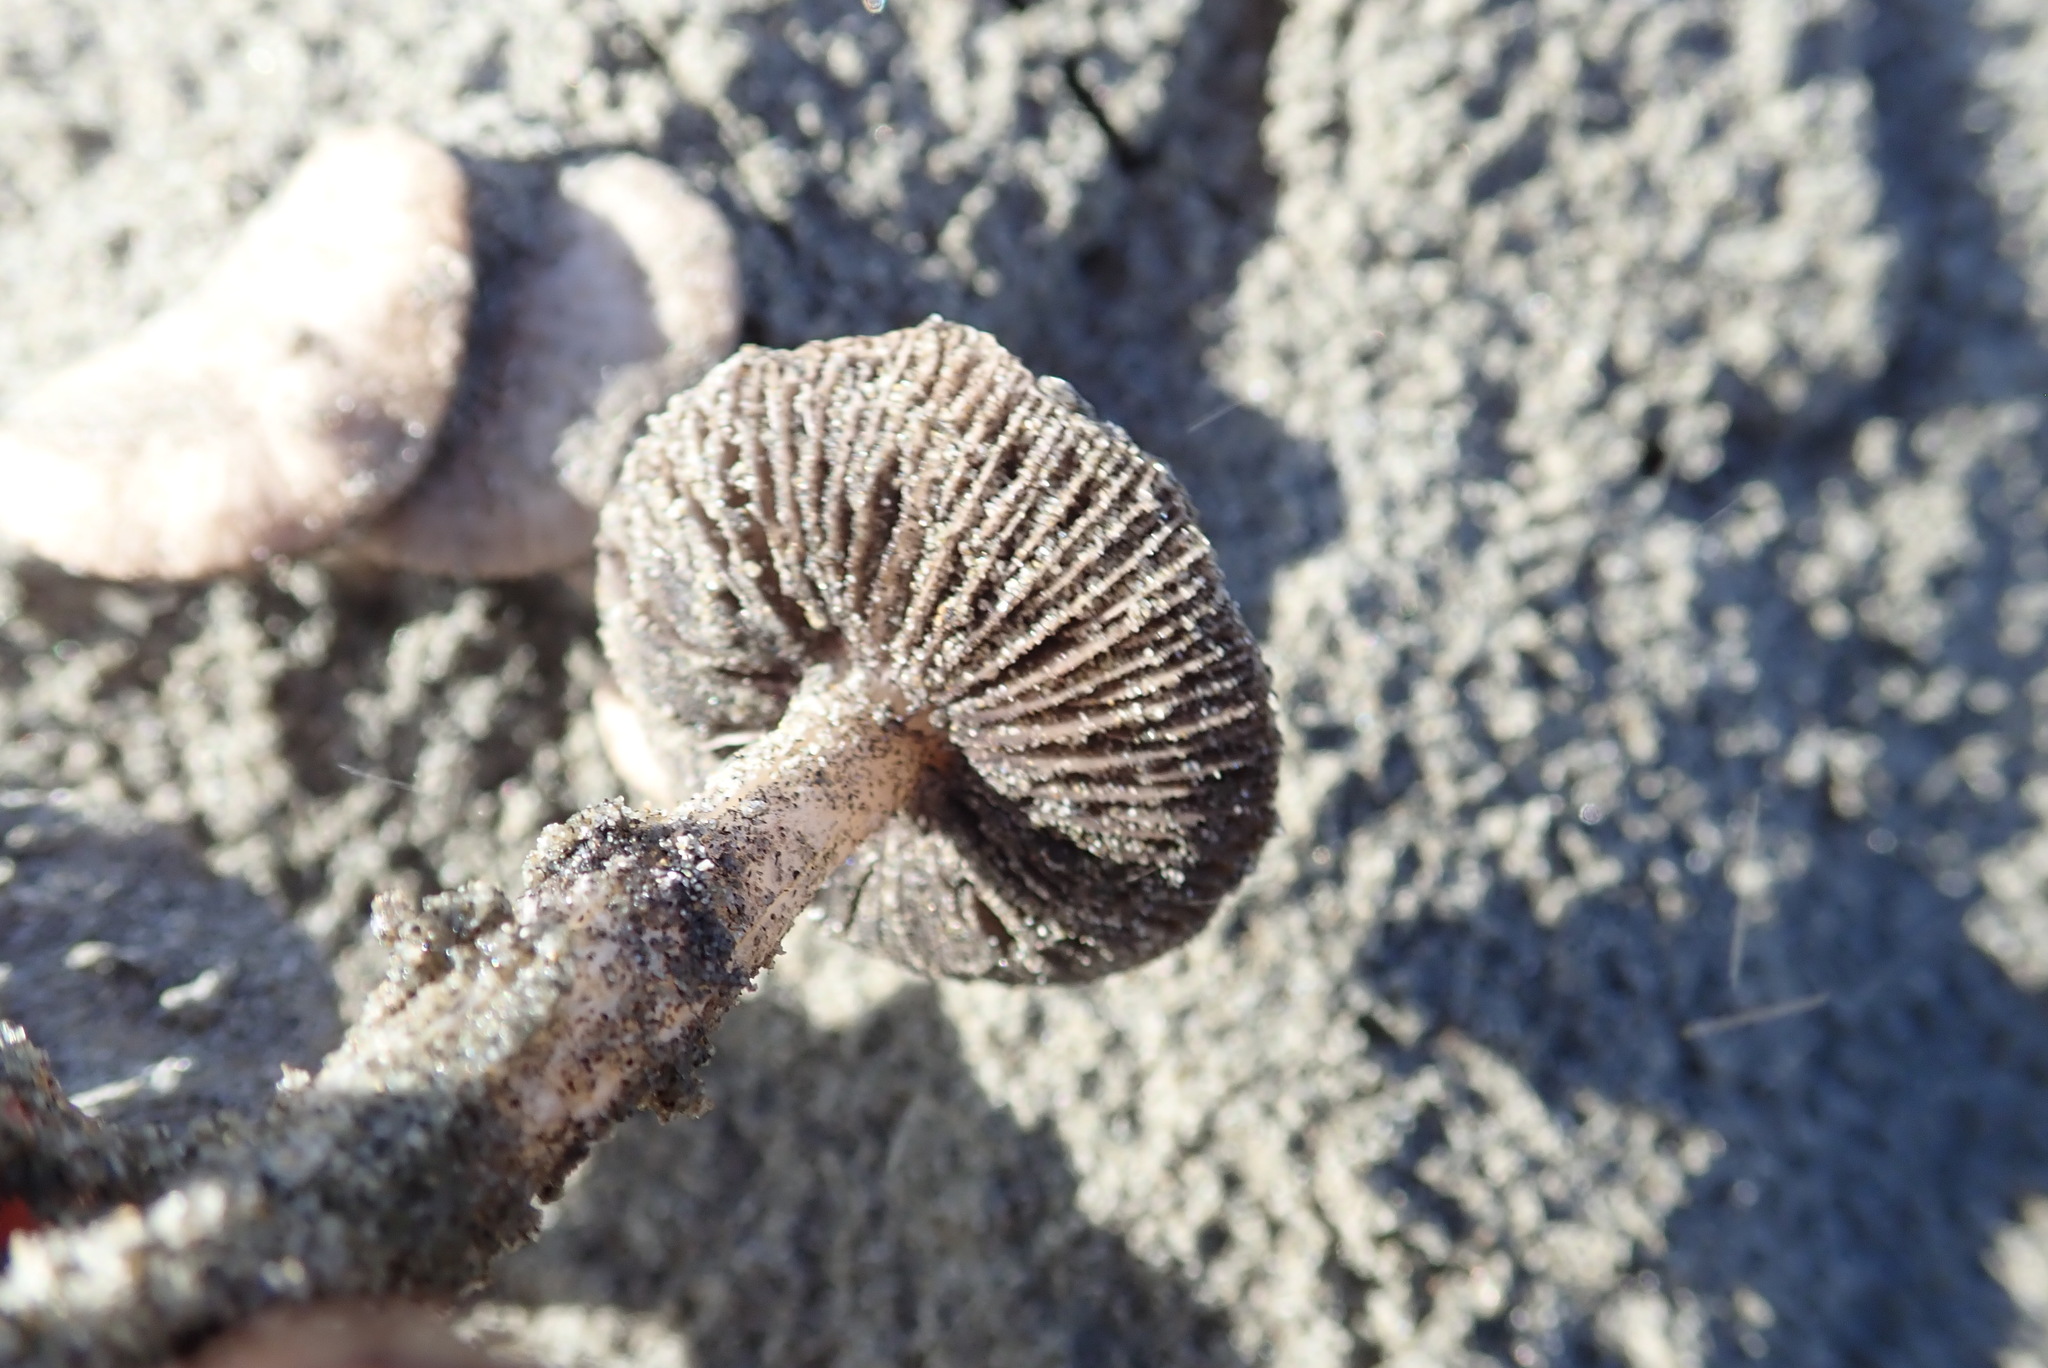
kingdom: Fungi
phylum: Basidiomycota
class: Agaricomycetes
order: Agaricales
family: Psathyrellaceae
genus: Psathyrella
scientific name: Psathyrella ammophila
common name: Dune brittlestem
